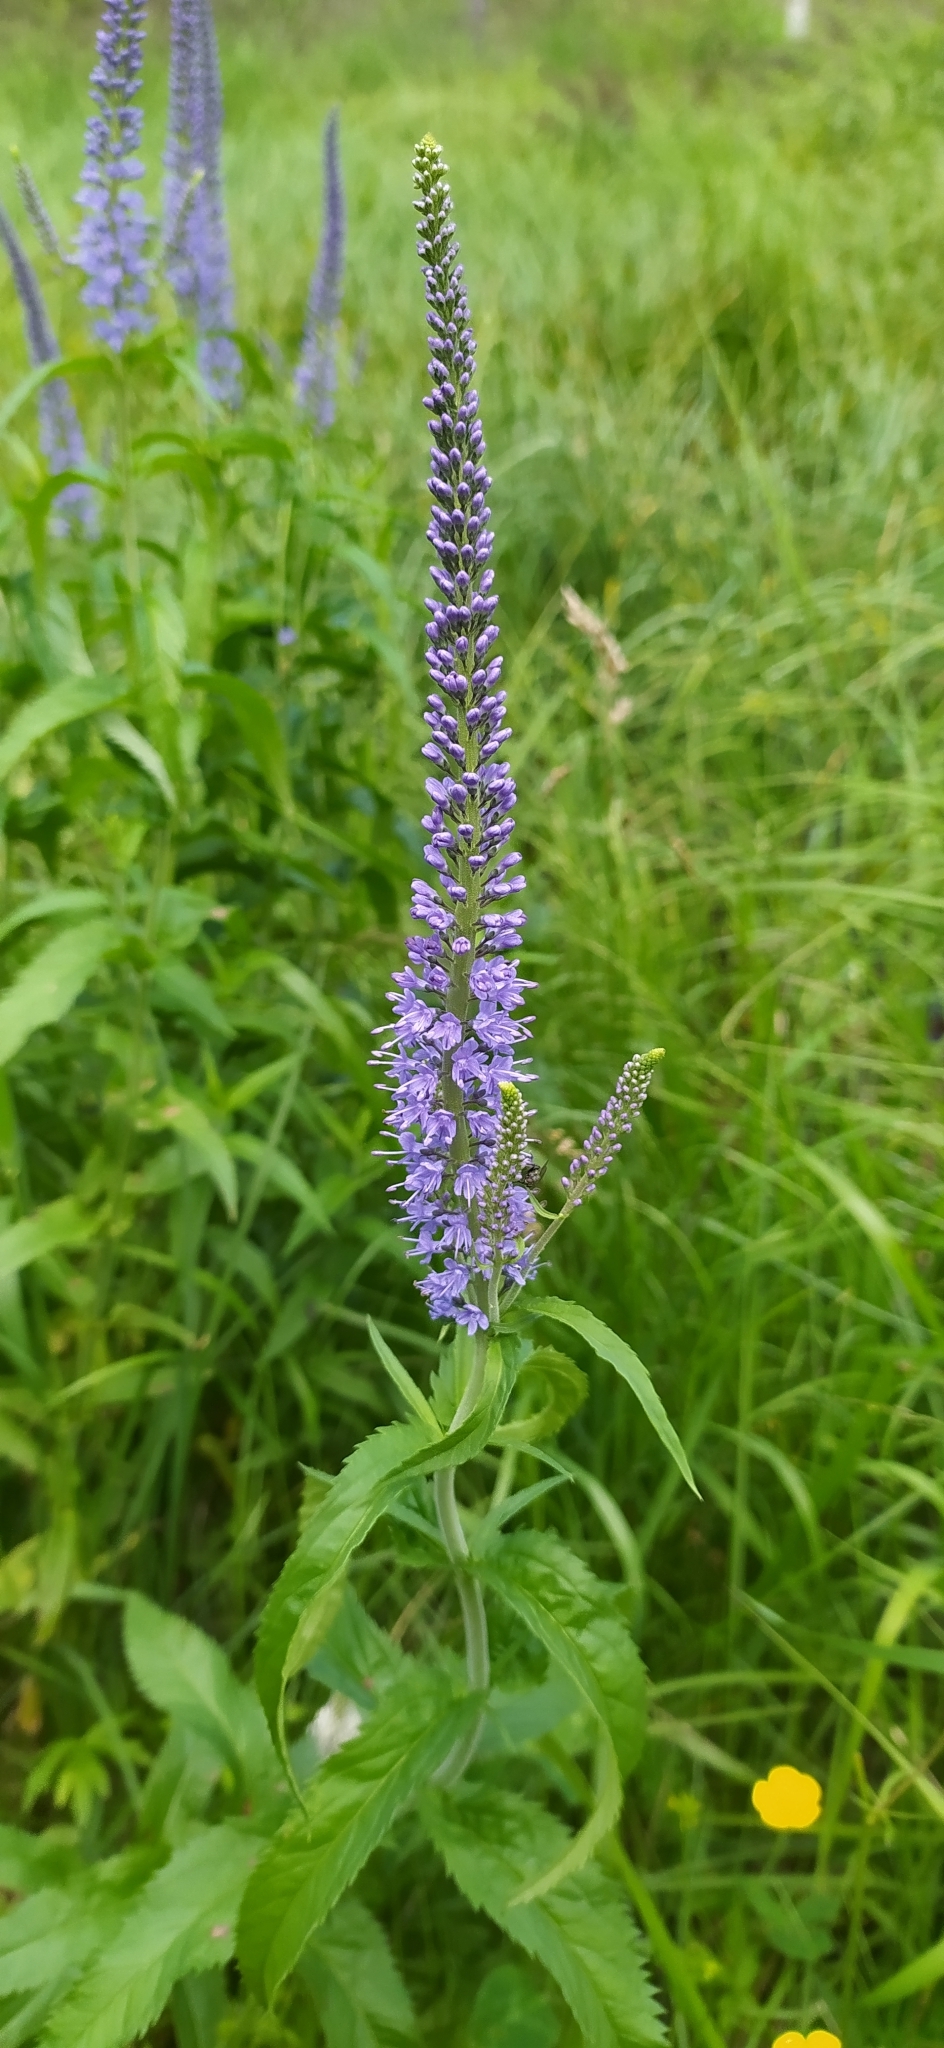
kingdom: Plantae
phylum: Tracheophyta
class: Magnoliopsida
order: Lamiales
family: Plantaginaceae
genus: Veronica
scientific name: Veronica longifolia
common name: Garden speedwell
